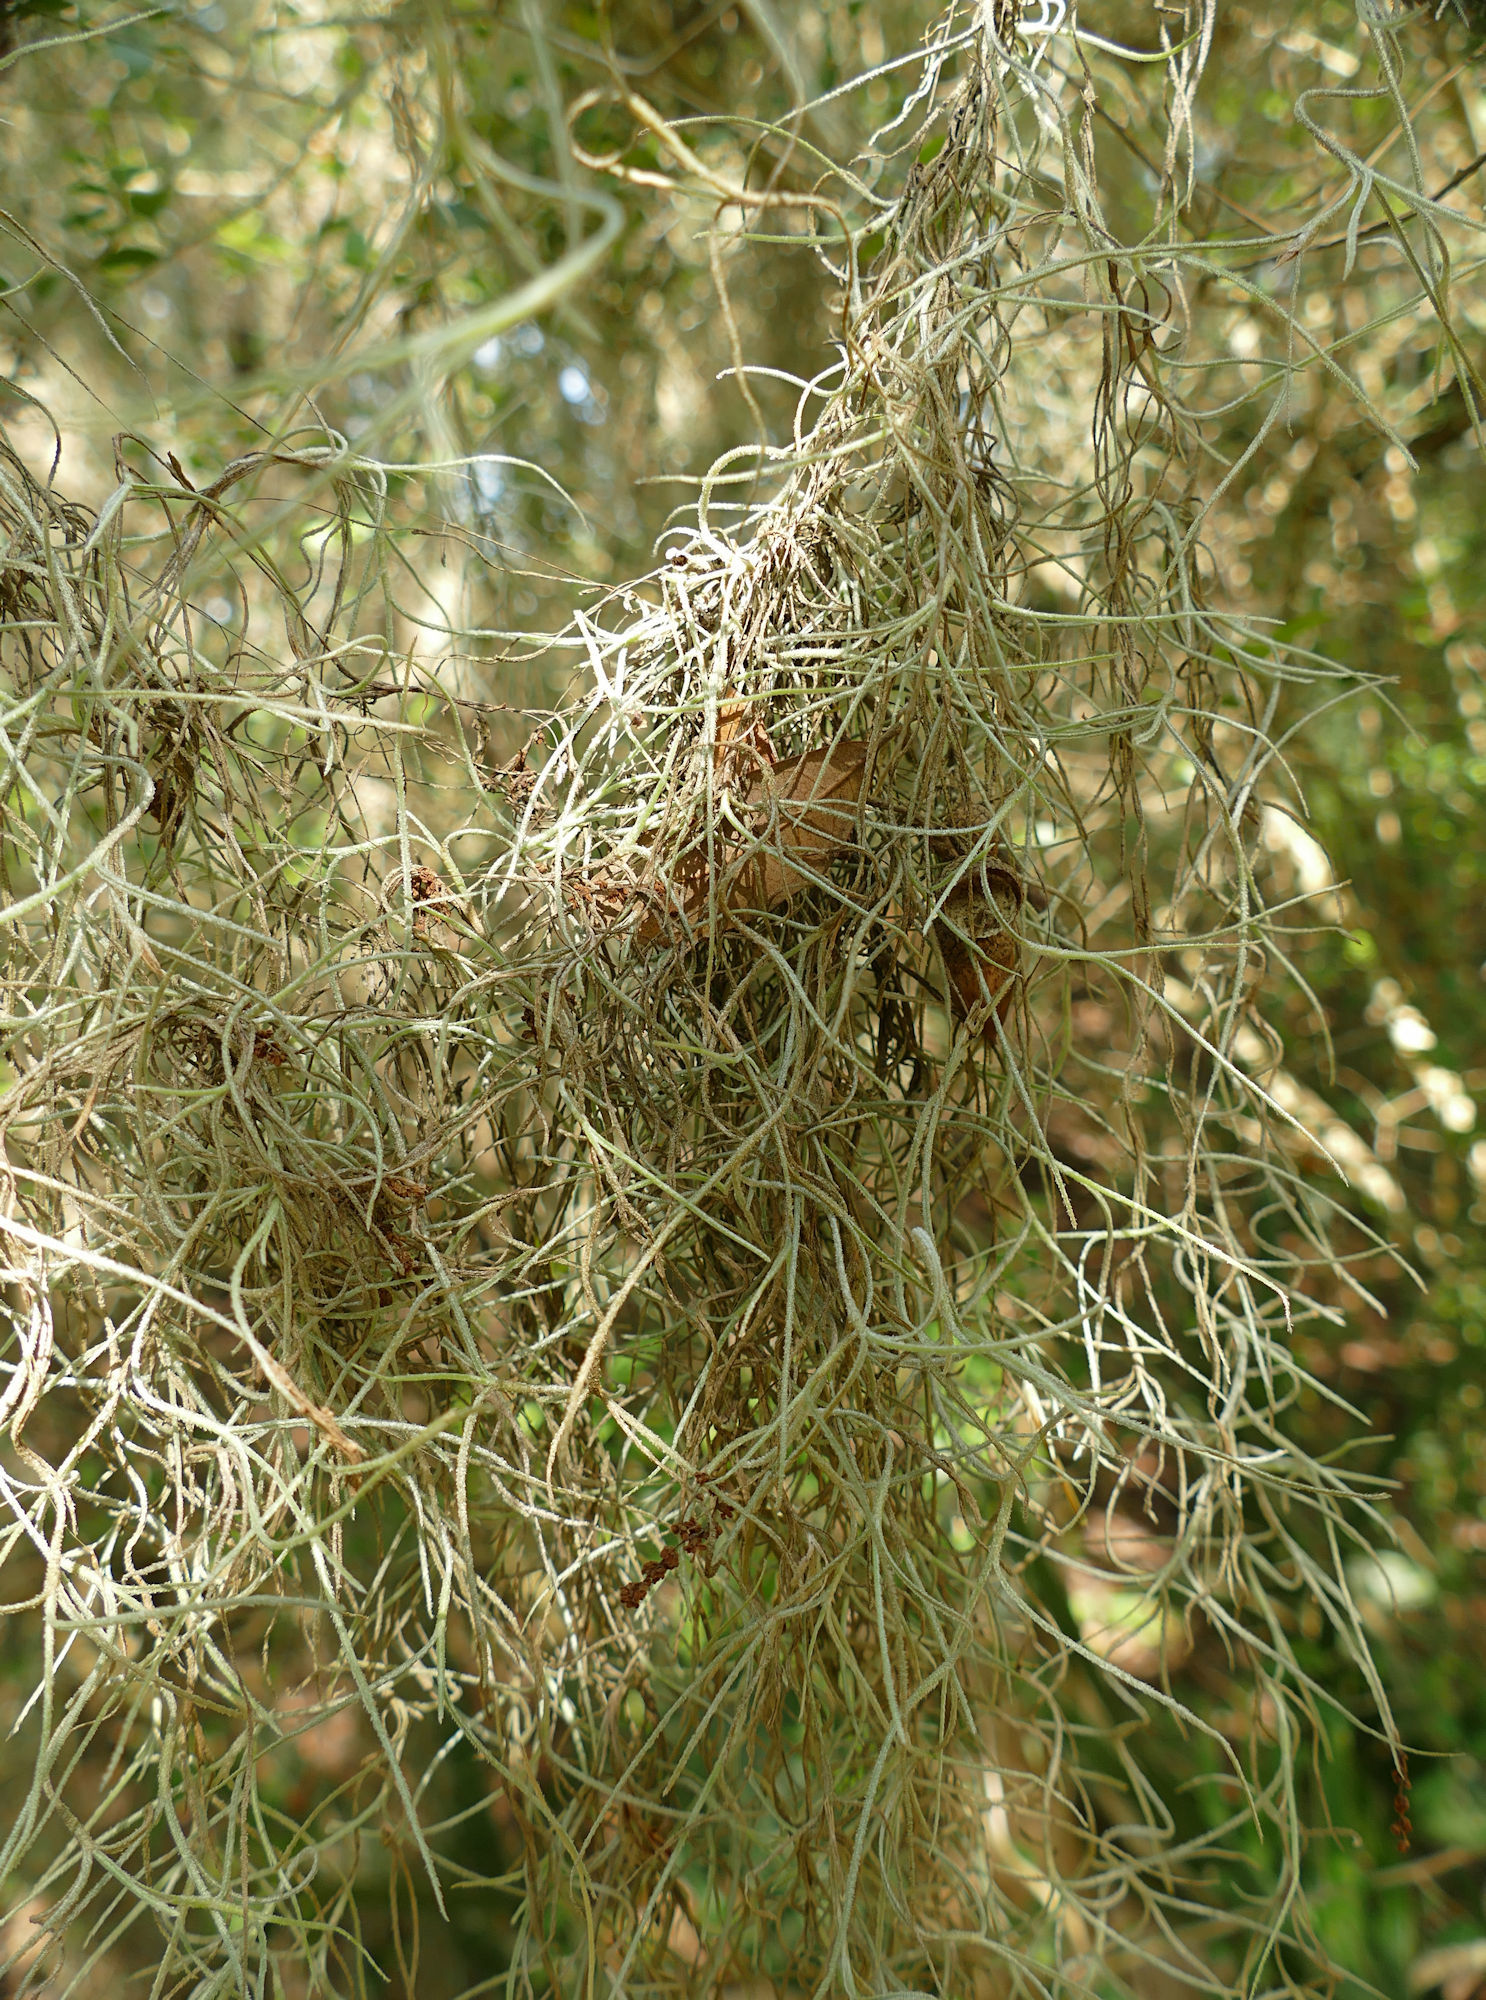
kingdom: Plantae
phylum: Tracheophyta
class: Liliopsida
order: Poales
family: Bromeliaceae
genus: Tillandsia
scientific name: Tillandsia usneoides
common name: Spanish moss
